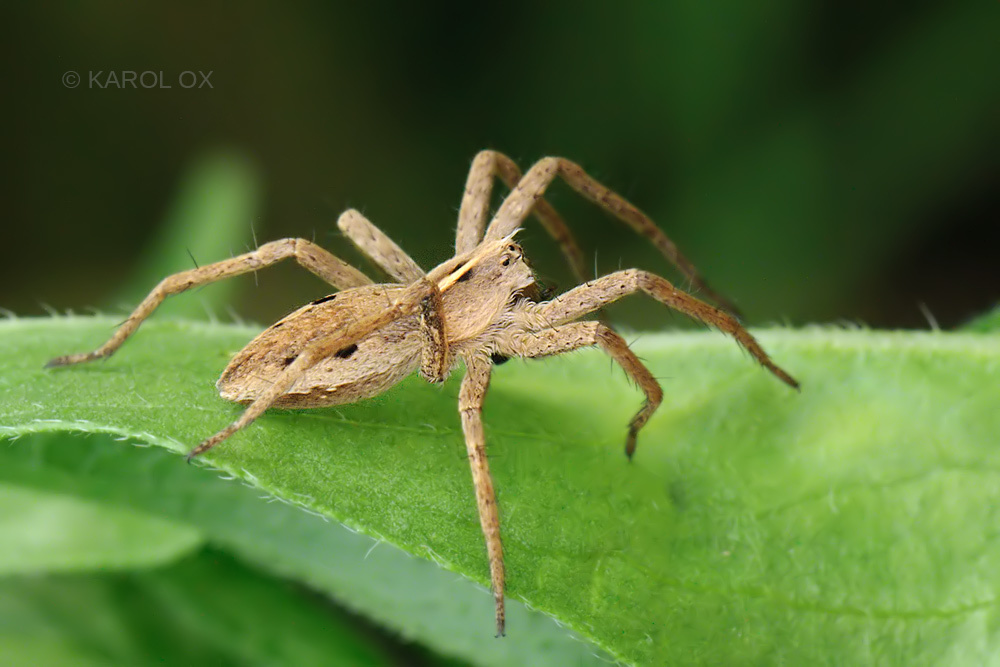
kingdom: Animalia
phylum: Arthropoda
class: Arachnida
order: Araneae
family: Pisauridae
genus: Pisaura
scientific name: Pisaura mirabilis
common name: Tent spider
